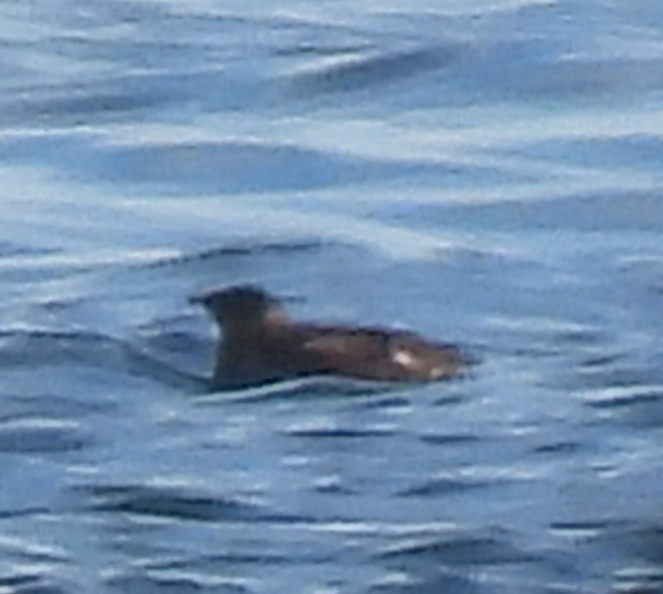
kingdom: Animalia
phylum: Chordata
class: Aves
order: Charadriiformes
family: Alcidae
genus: Brachyramphus
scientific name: Brachyramphus marmoratus
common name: Marbled murrelet
